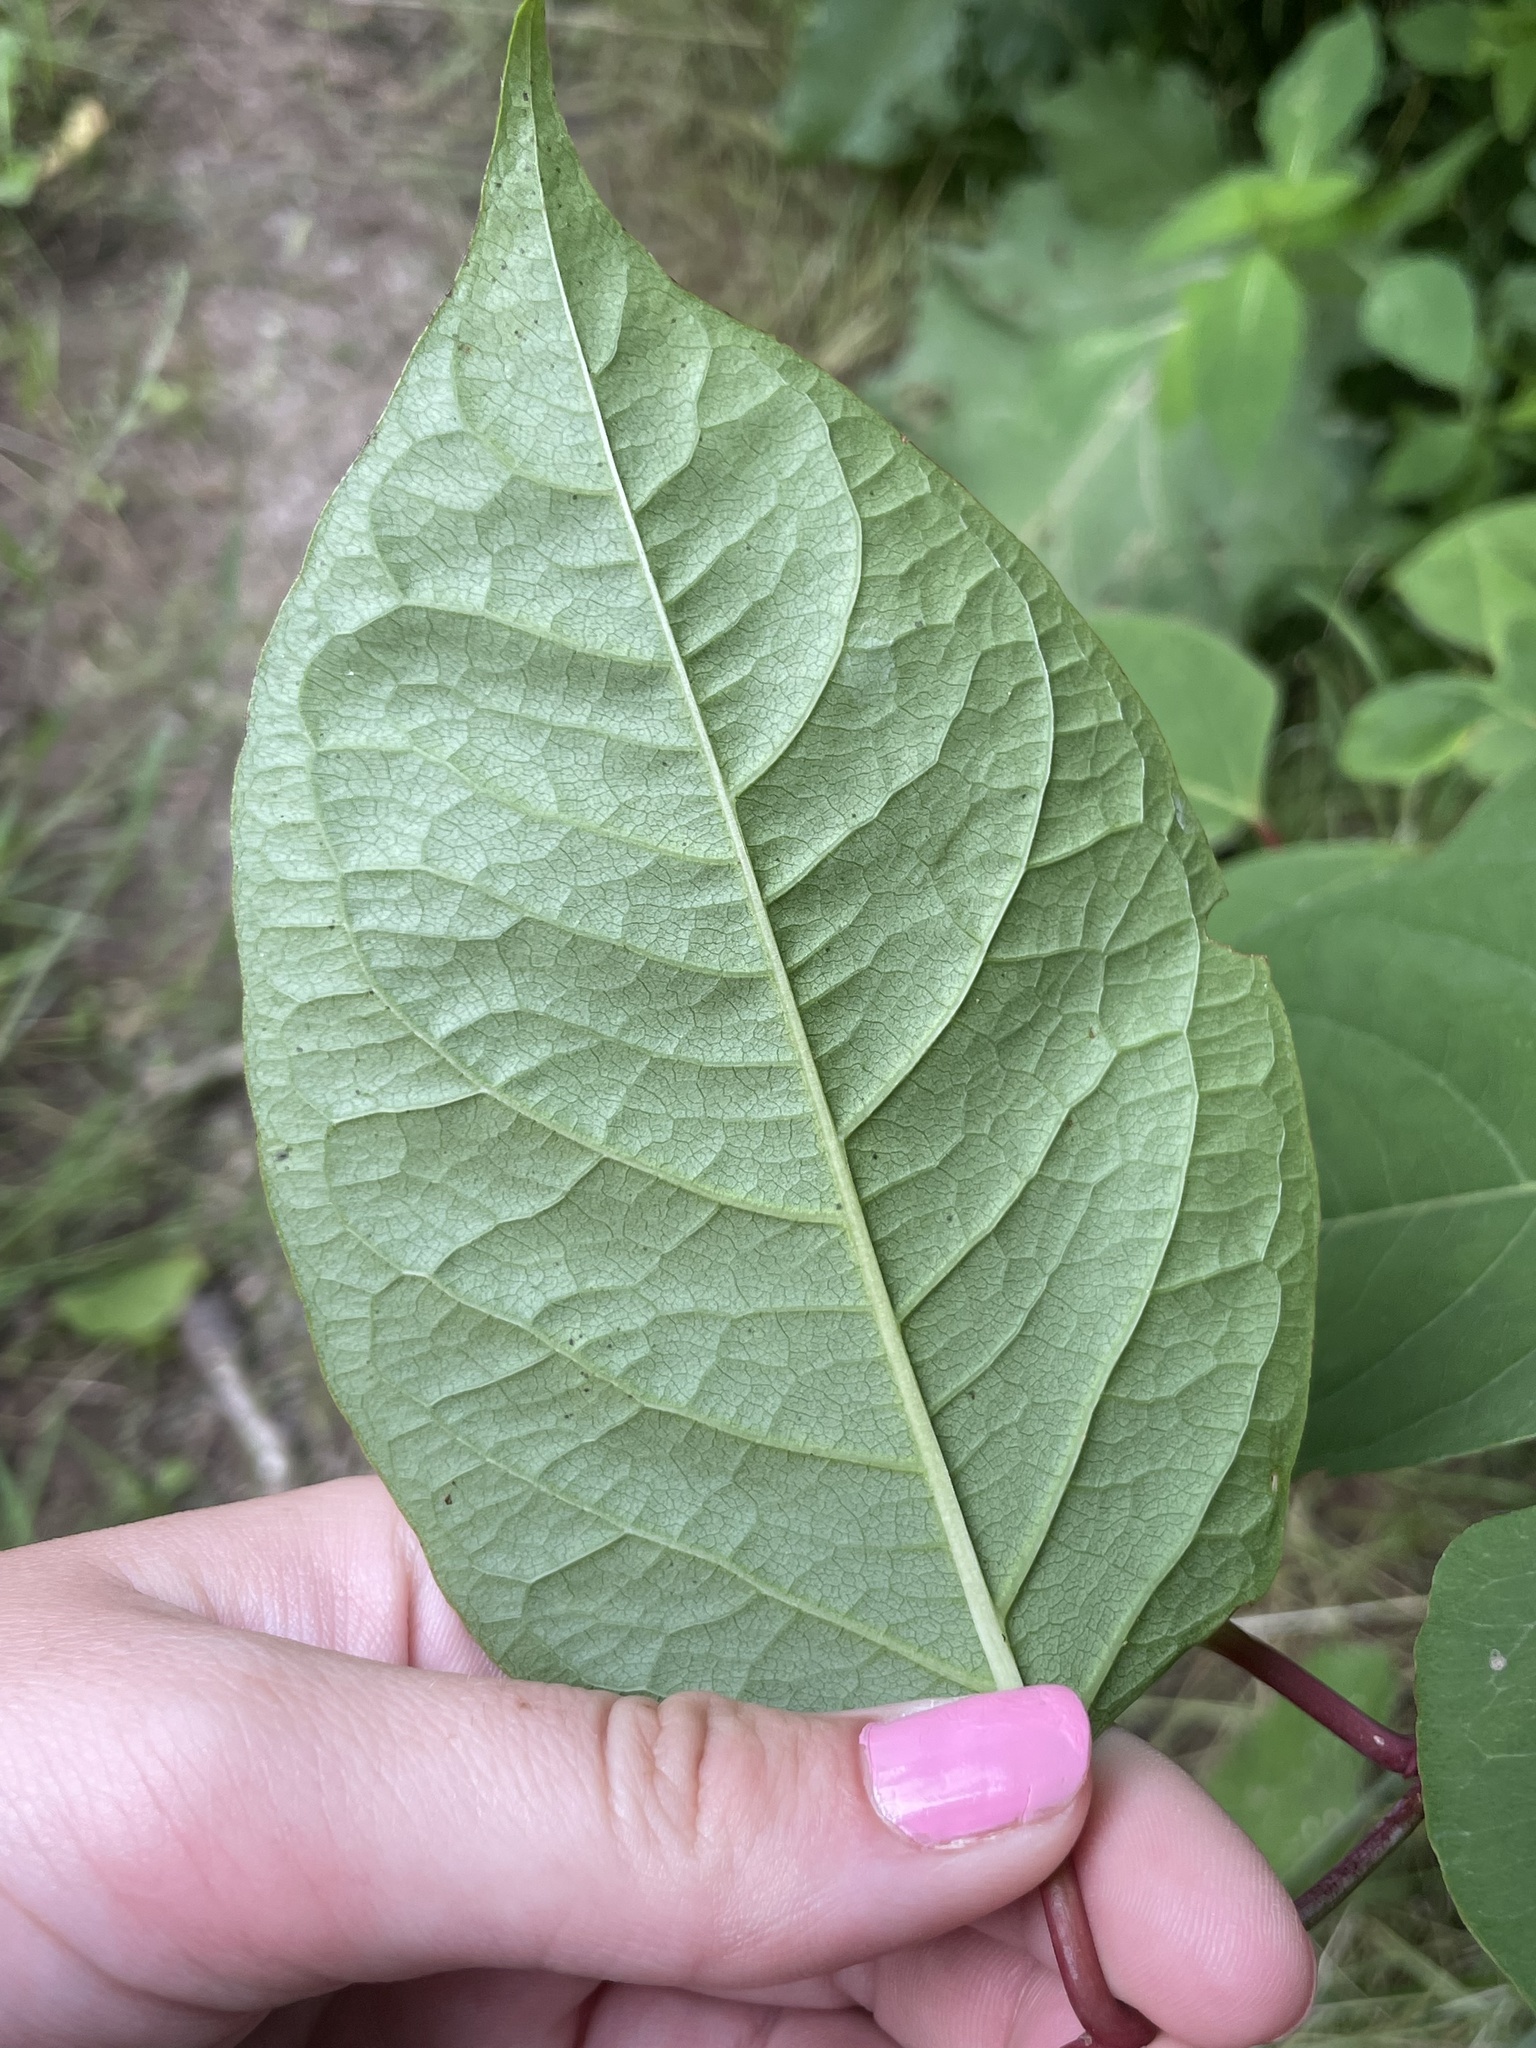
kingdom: Plantae
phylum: Tracheophyta
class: Magnoliopsida
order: Caryophyllales
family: Polygonaceae
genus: Reynoutria
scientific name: Reynoutria japonica
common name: Japanese knotweed
